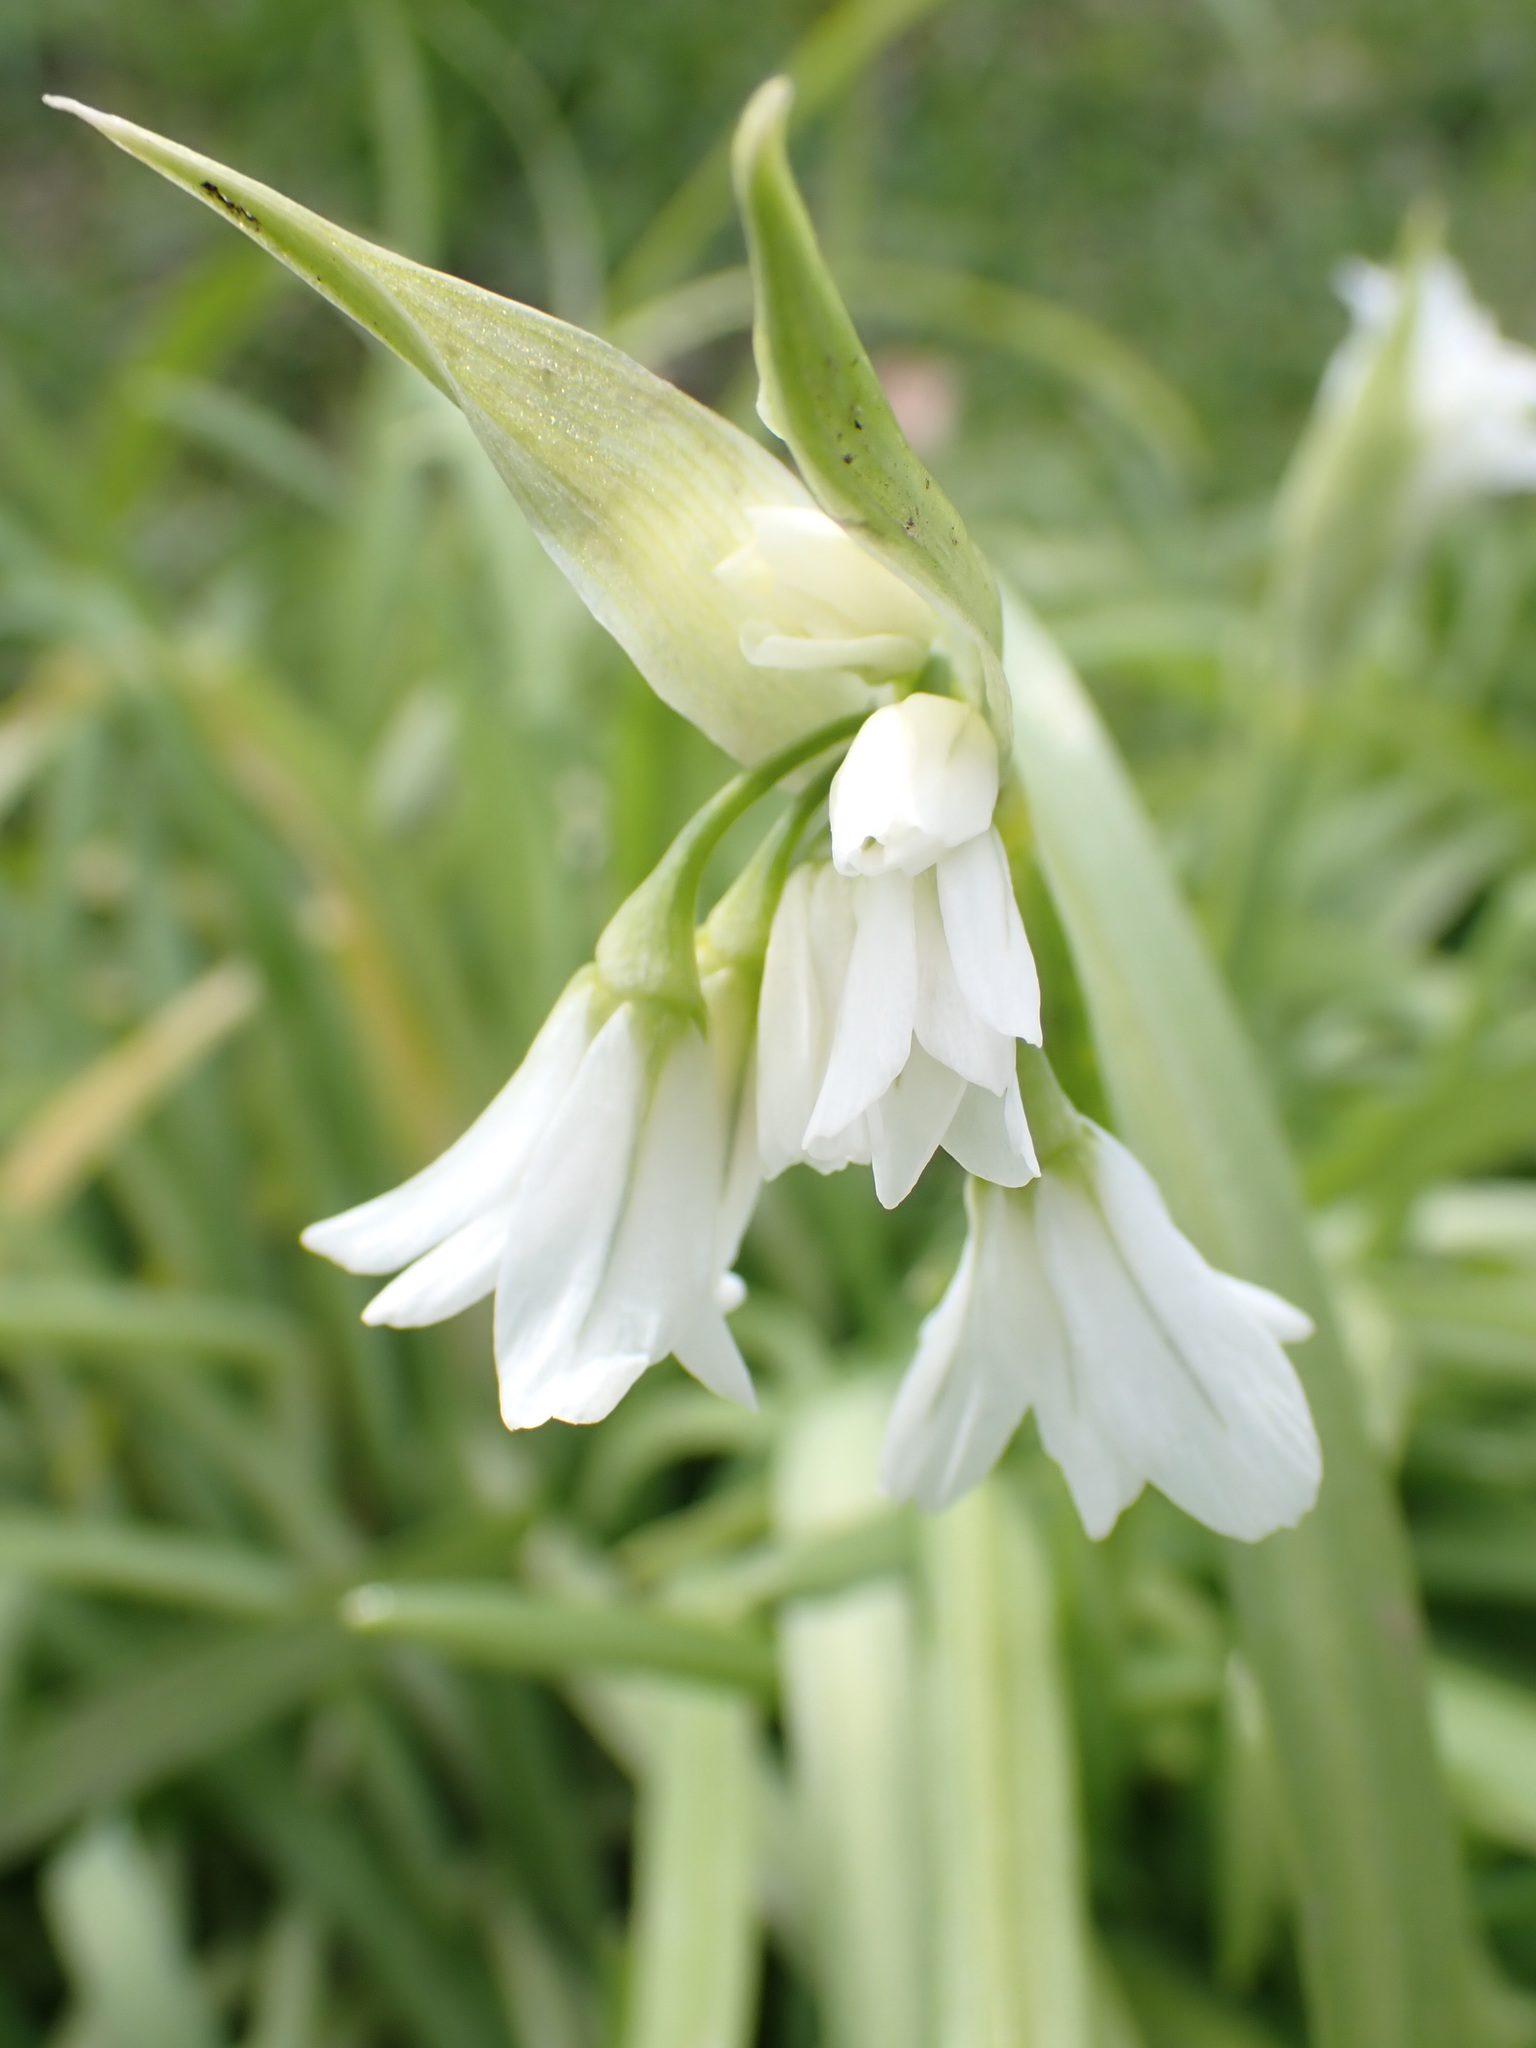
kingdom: Plantae
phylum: Tracheophyta
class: Liliopsida
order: Asparagales
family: Amaryllidaceae
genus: Allium
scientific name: Allium triquetrum
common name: Three-cornered garlic
